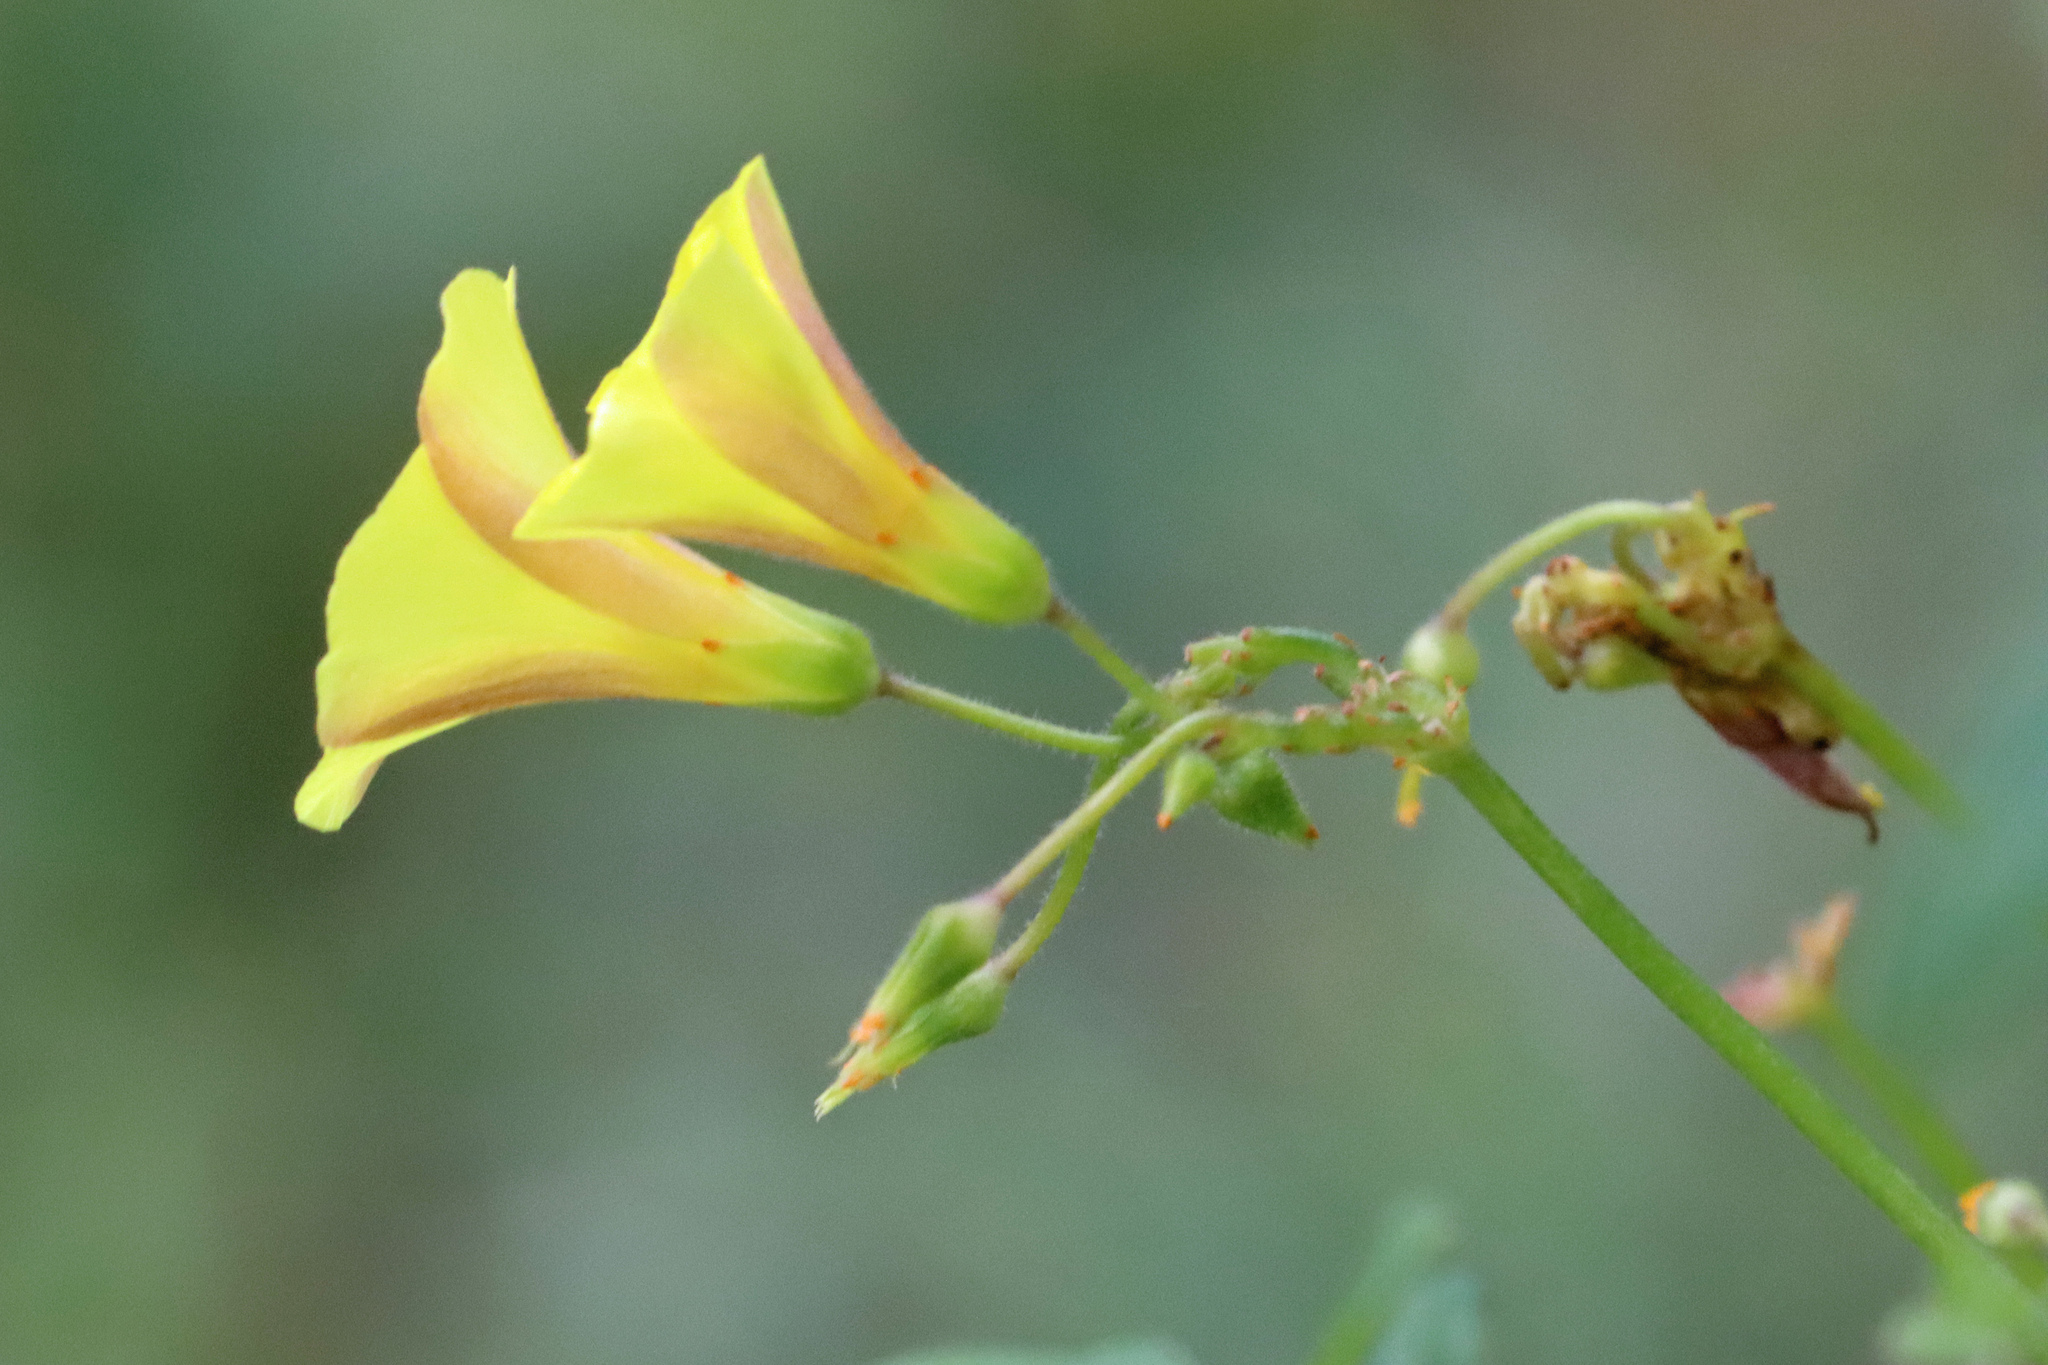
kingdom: Plantae
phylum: Tracheophyta
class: Magnoliopsida
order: Oxalidales
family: Oxalidaceae
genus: Oxalis
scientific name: Oxalis pes-caprae
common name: Bermuda-buttercup
